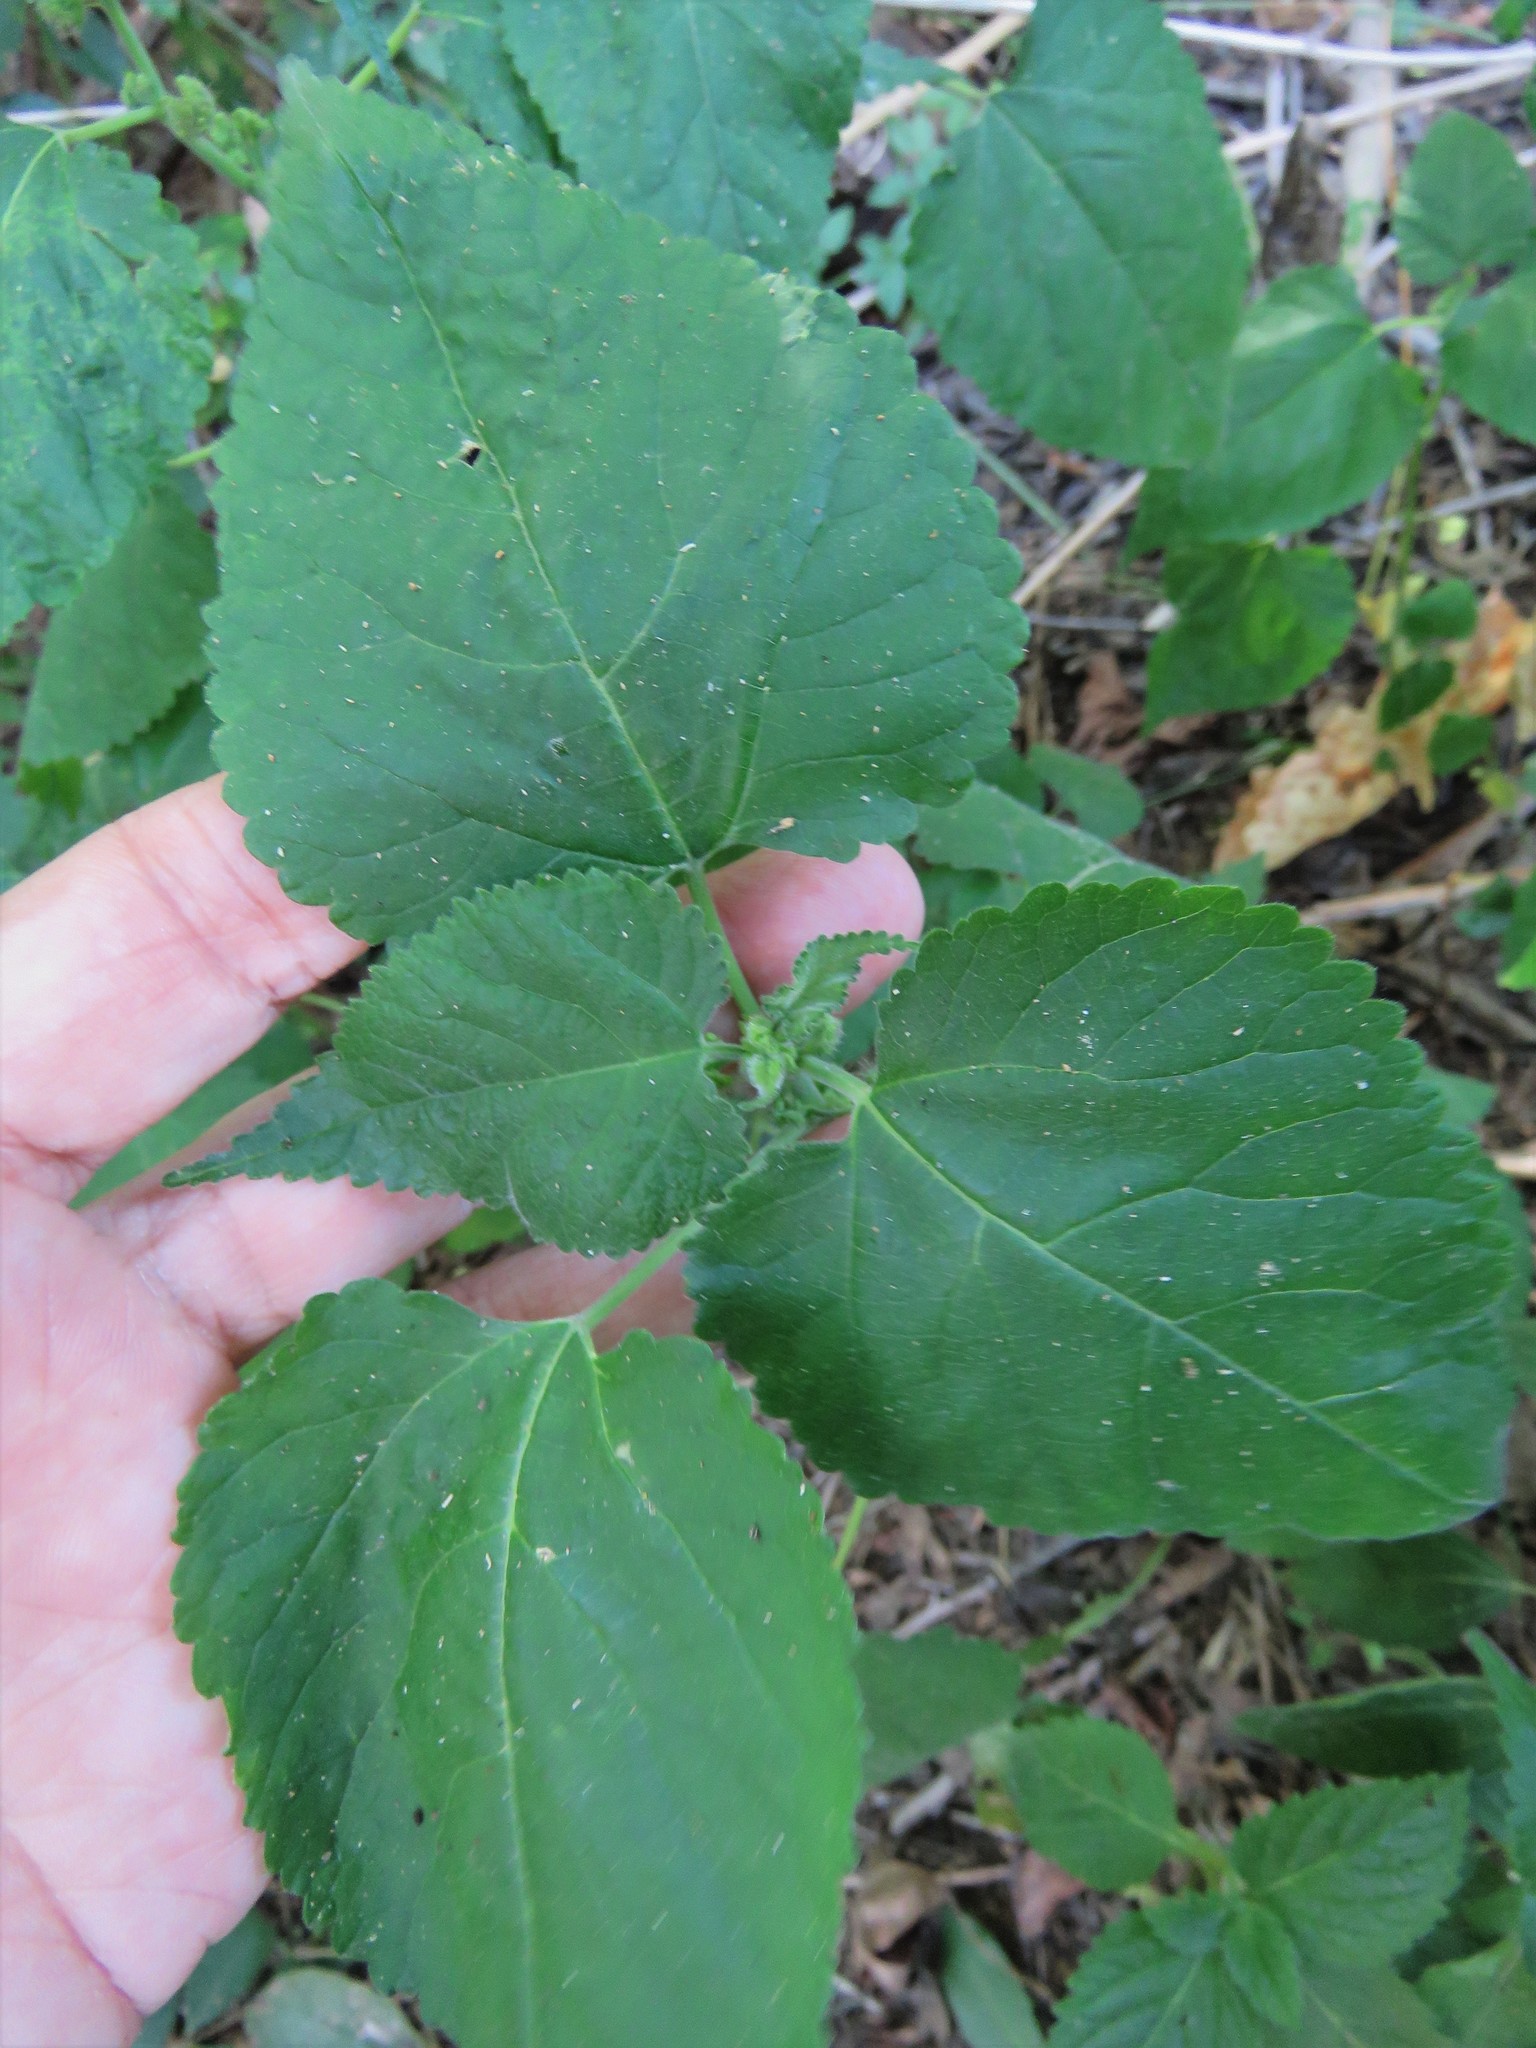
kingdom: Plantae
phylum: Tracheophyta
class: Magnoliopsida
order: Rosales
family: Moraceae
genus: Fatoua
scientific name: Fatoua villosa
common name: Hairy crabweed
